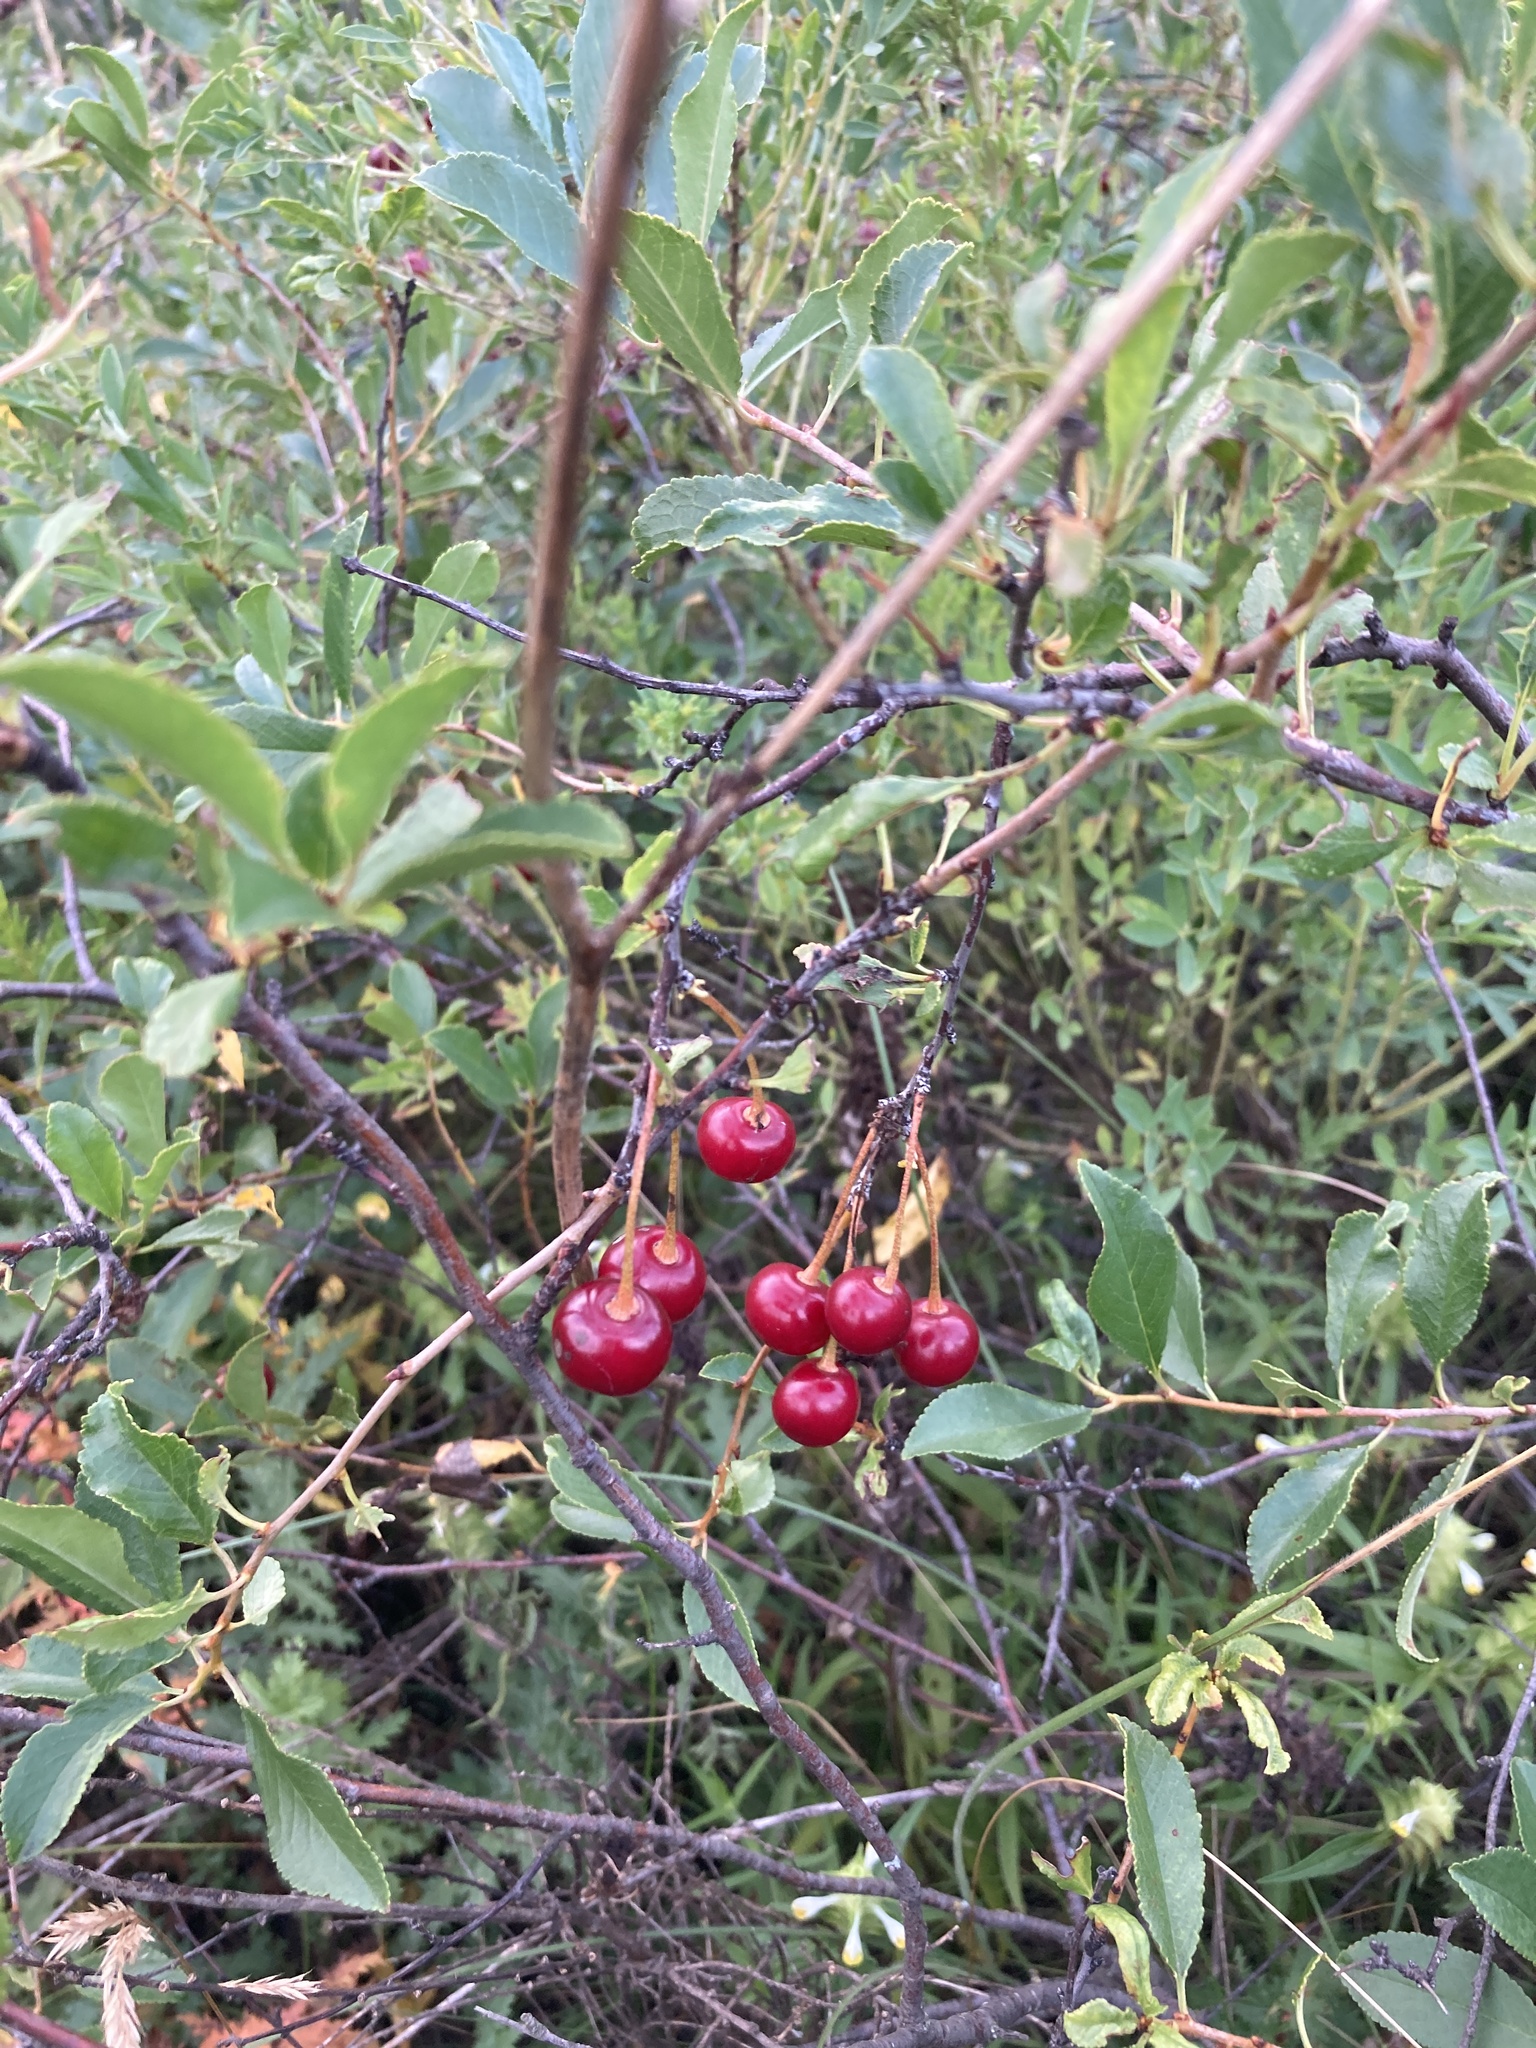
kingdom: Plantae
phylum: Tracheophyta
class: Magnoliopsida
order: Rosales
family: Rosaceae
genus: Prunus
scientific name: Prunus fruticosa
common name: European dwarf cherry
